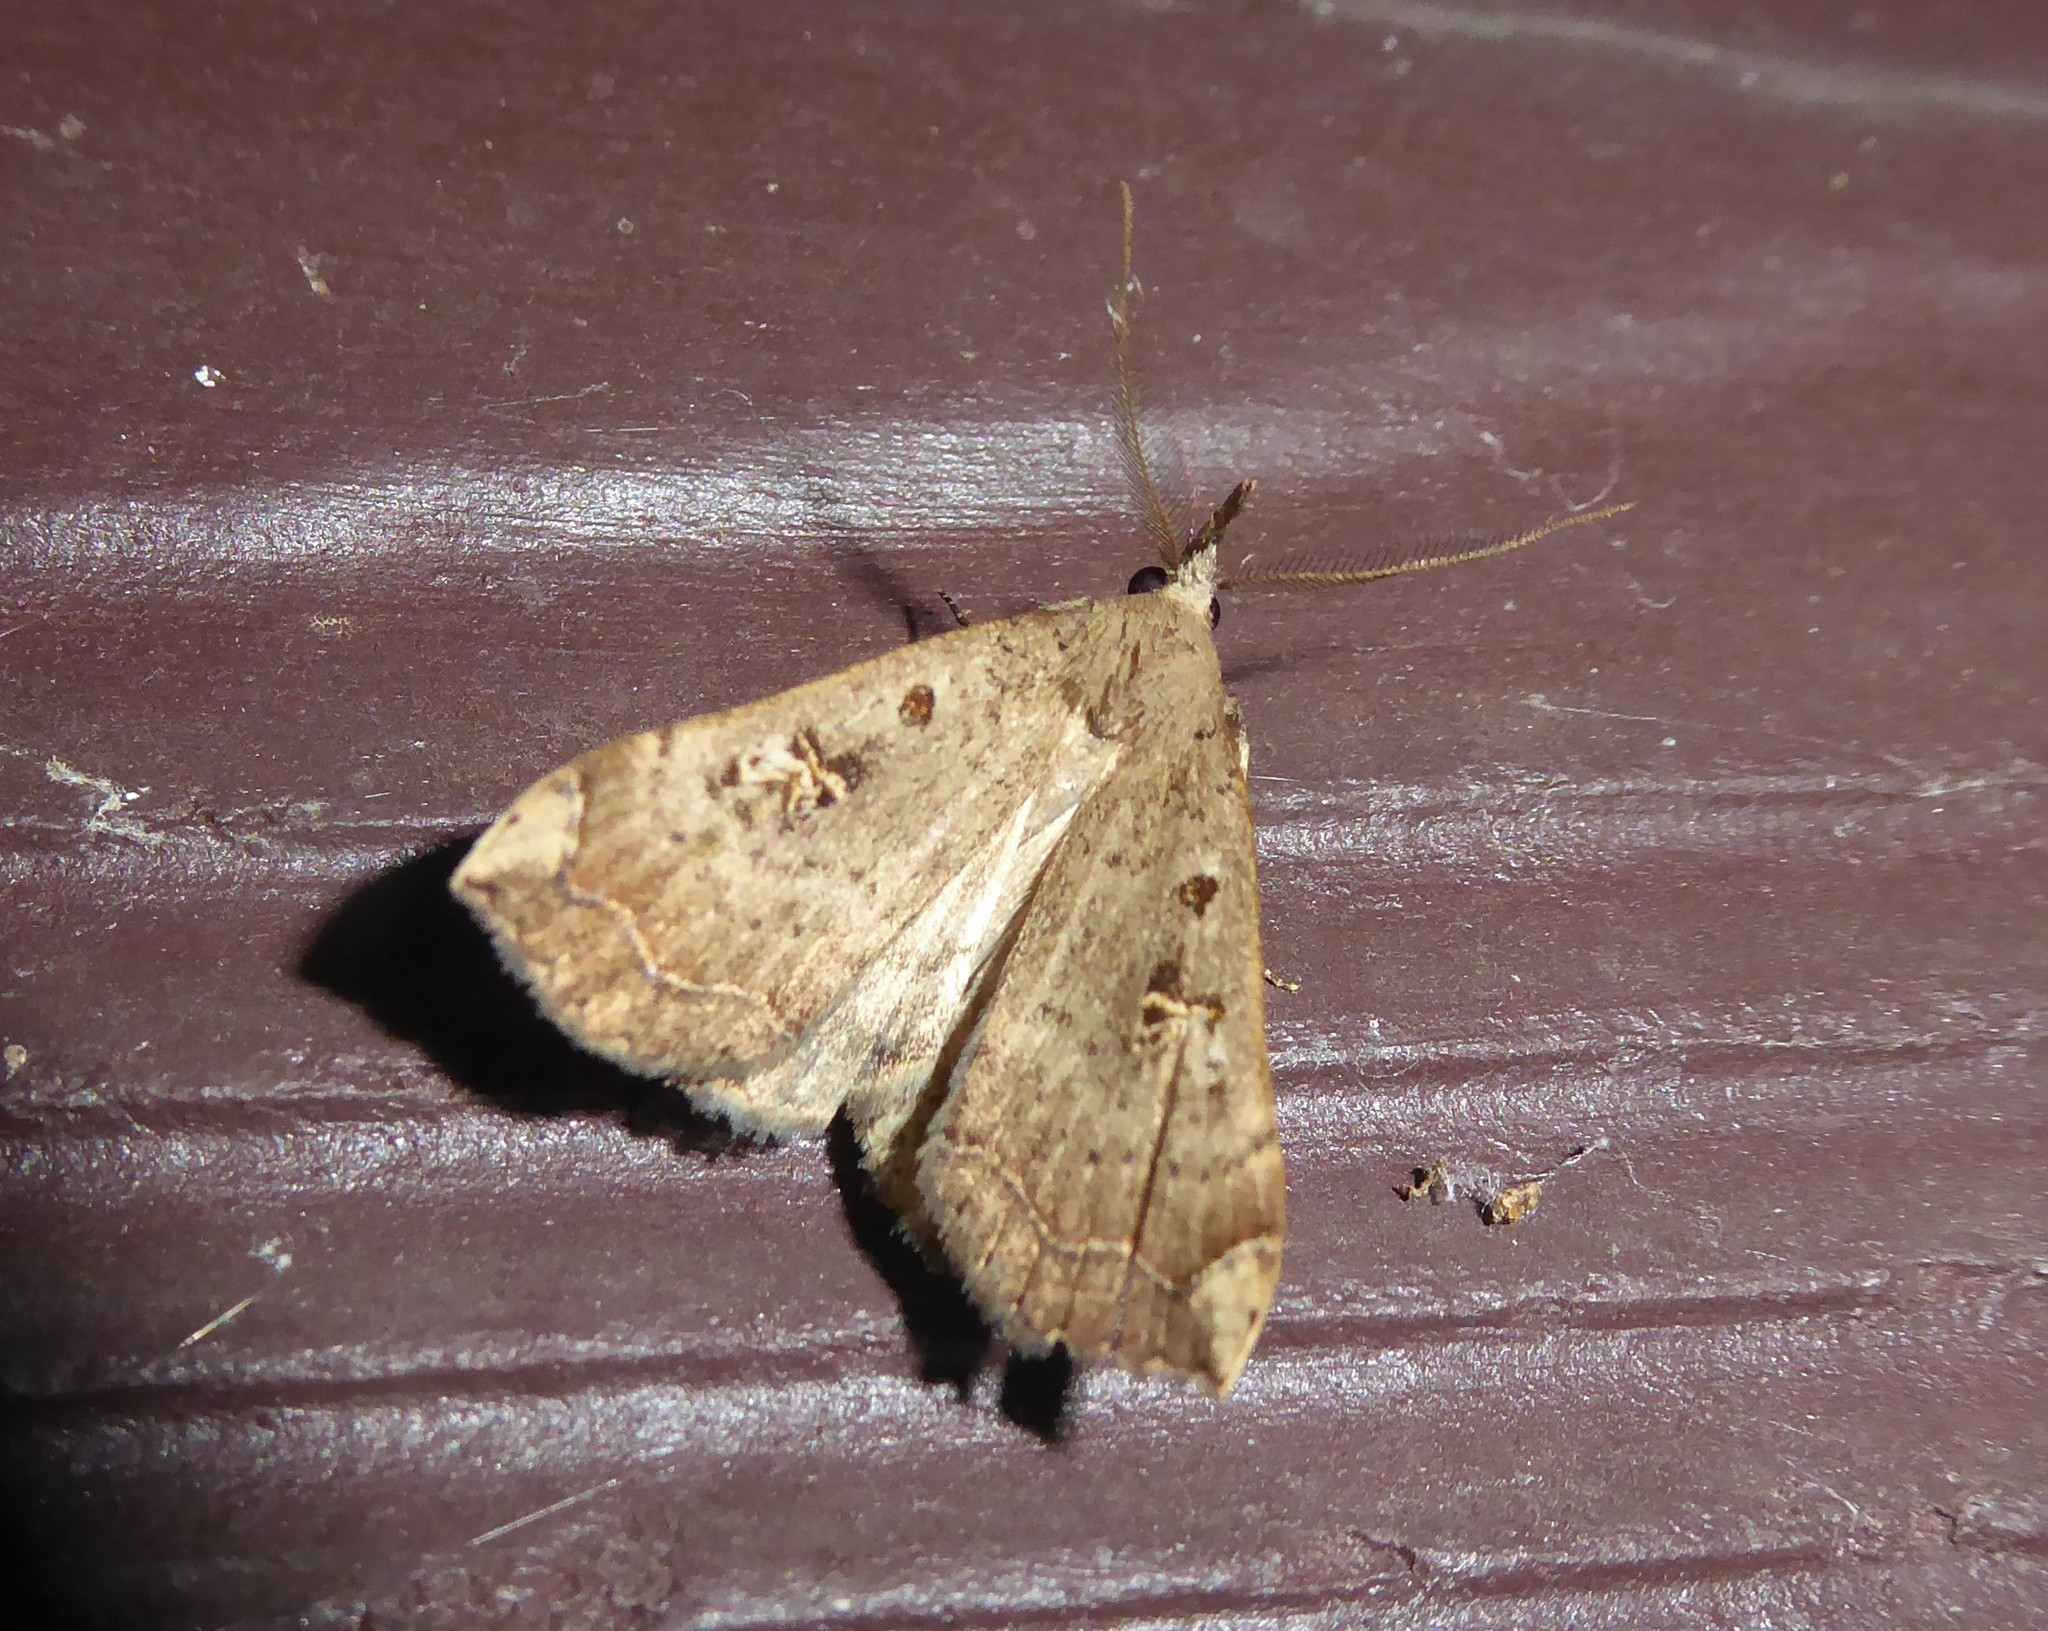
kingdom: Animalia
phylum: Arthropoda
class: Insecta
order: Lepidoptera
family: Erebidae
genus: Rhapsa
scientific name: Rhapsa scotosialis
